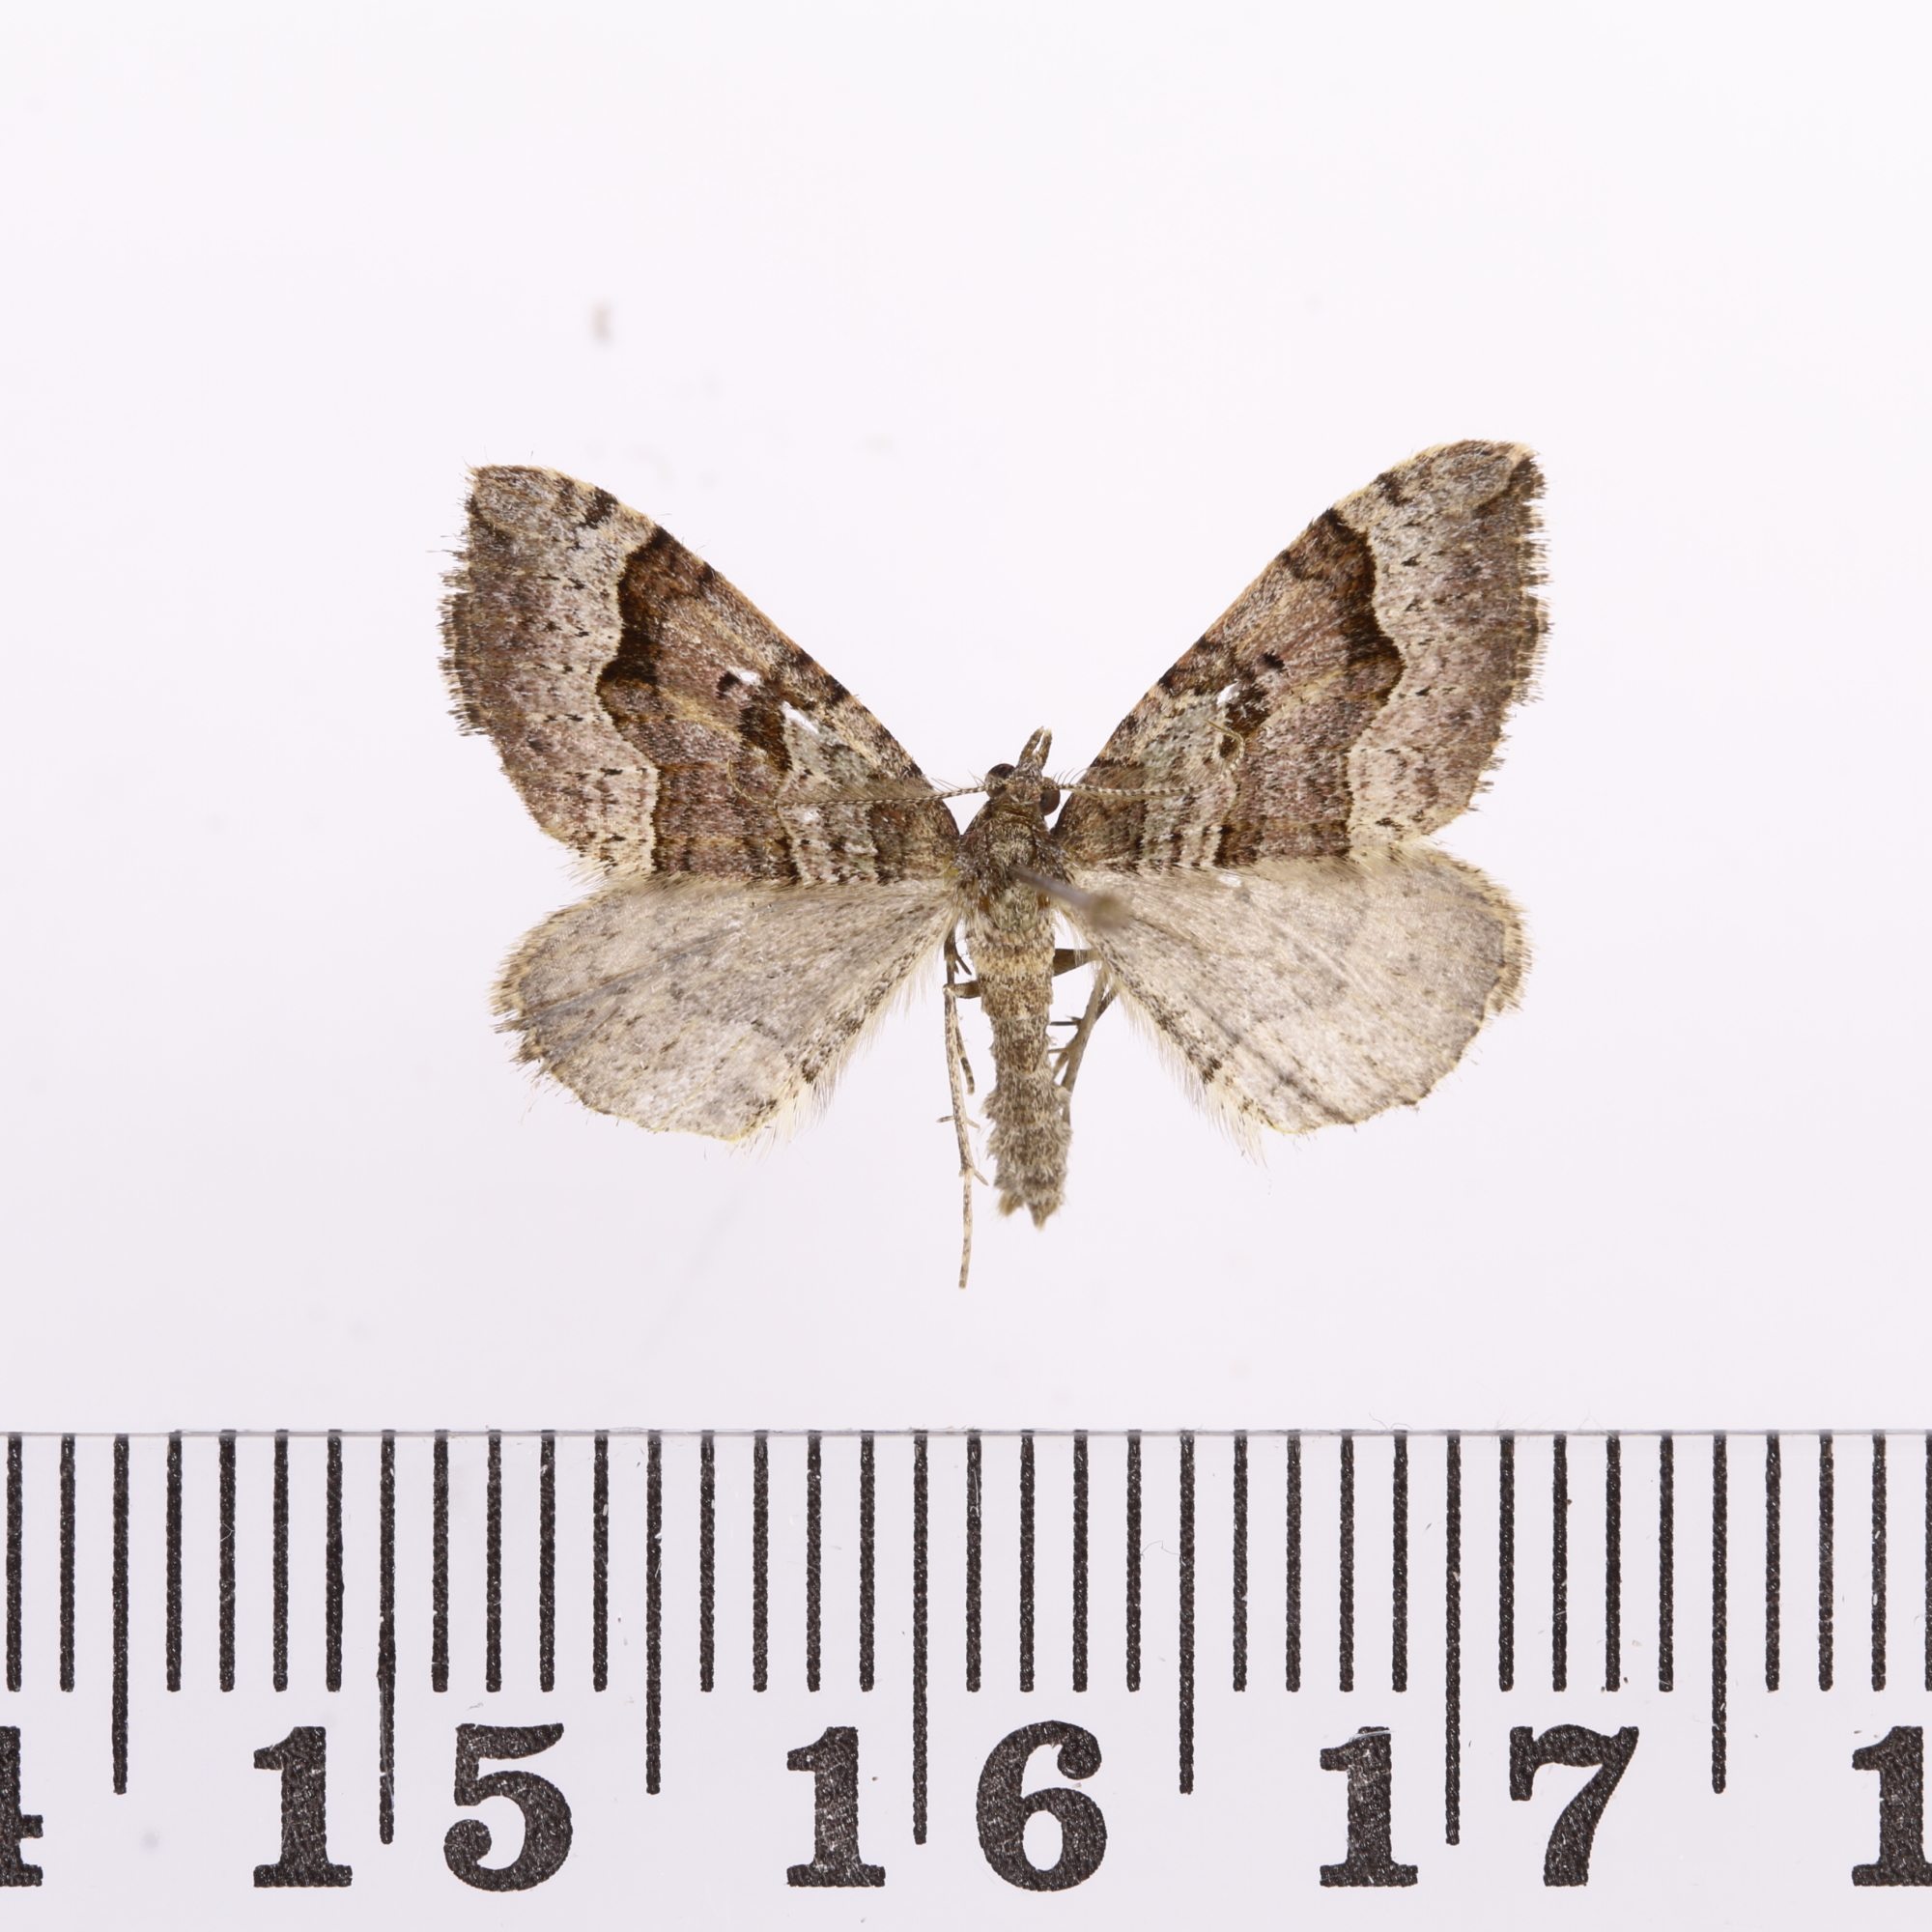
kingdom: Animalia
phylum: Arthropoda
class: Insecta
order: Lepidoptera
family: Geometridae
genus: Epyaxa
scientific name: Epyaxa rosearia
